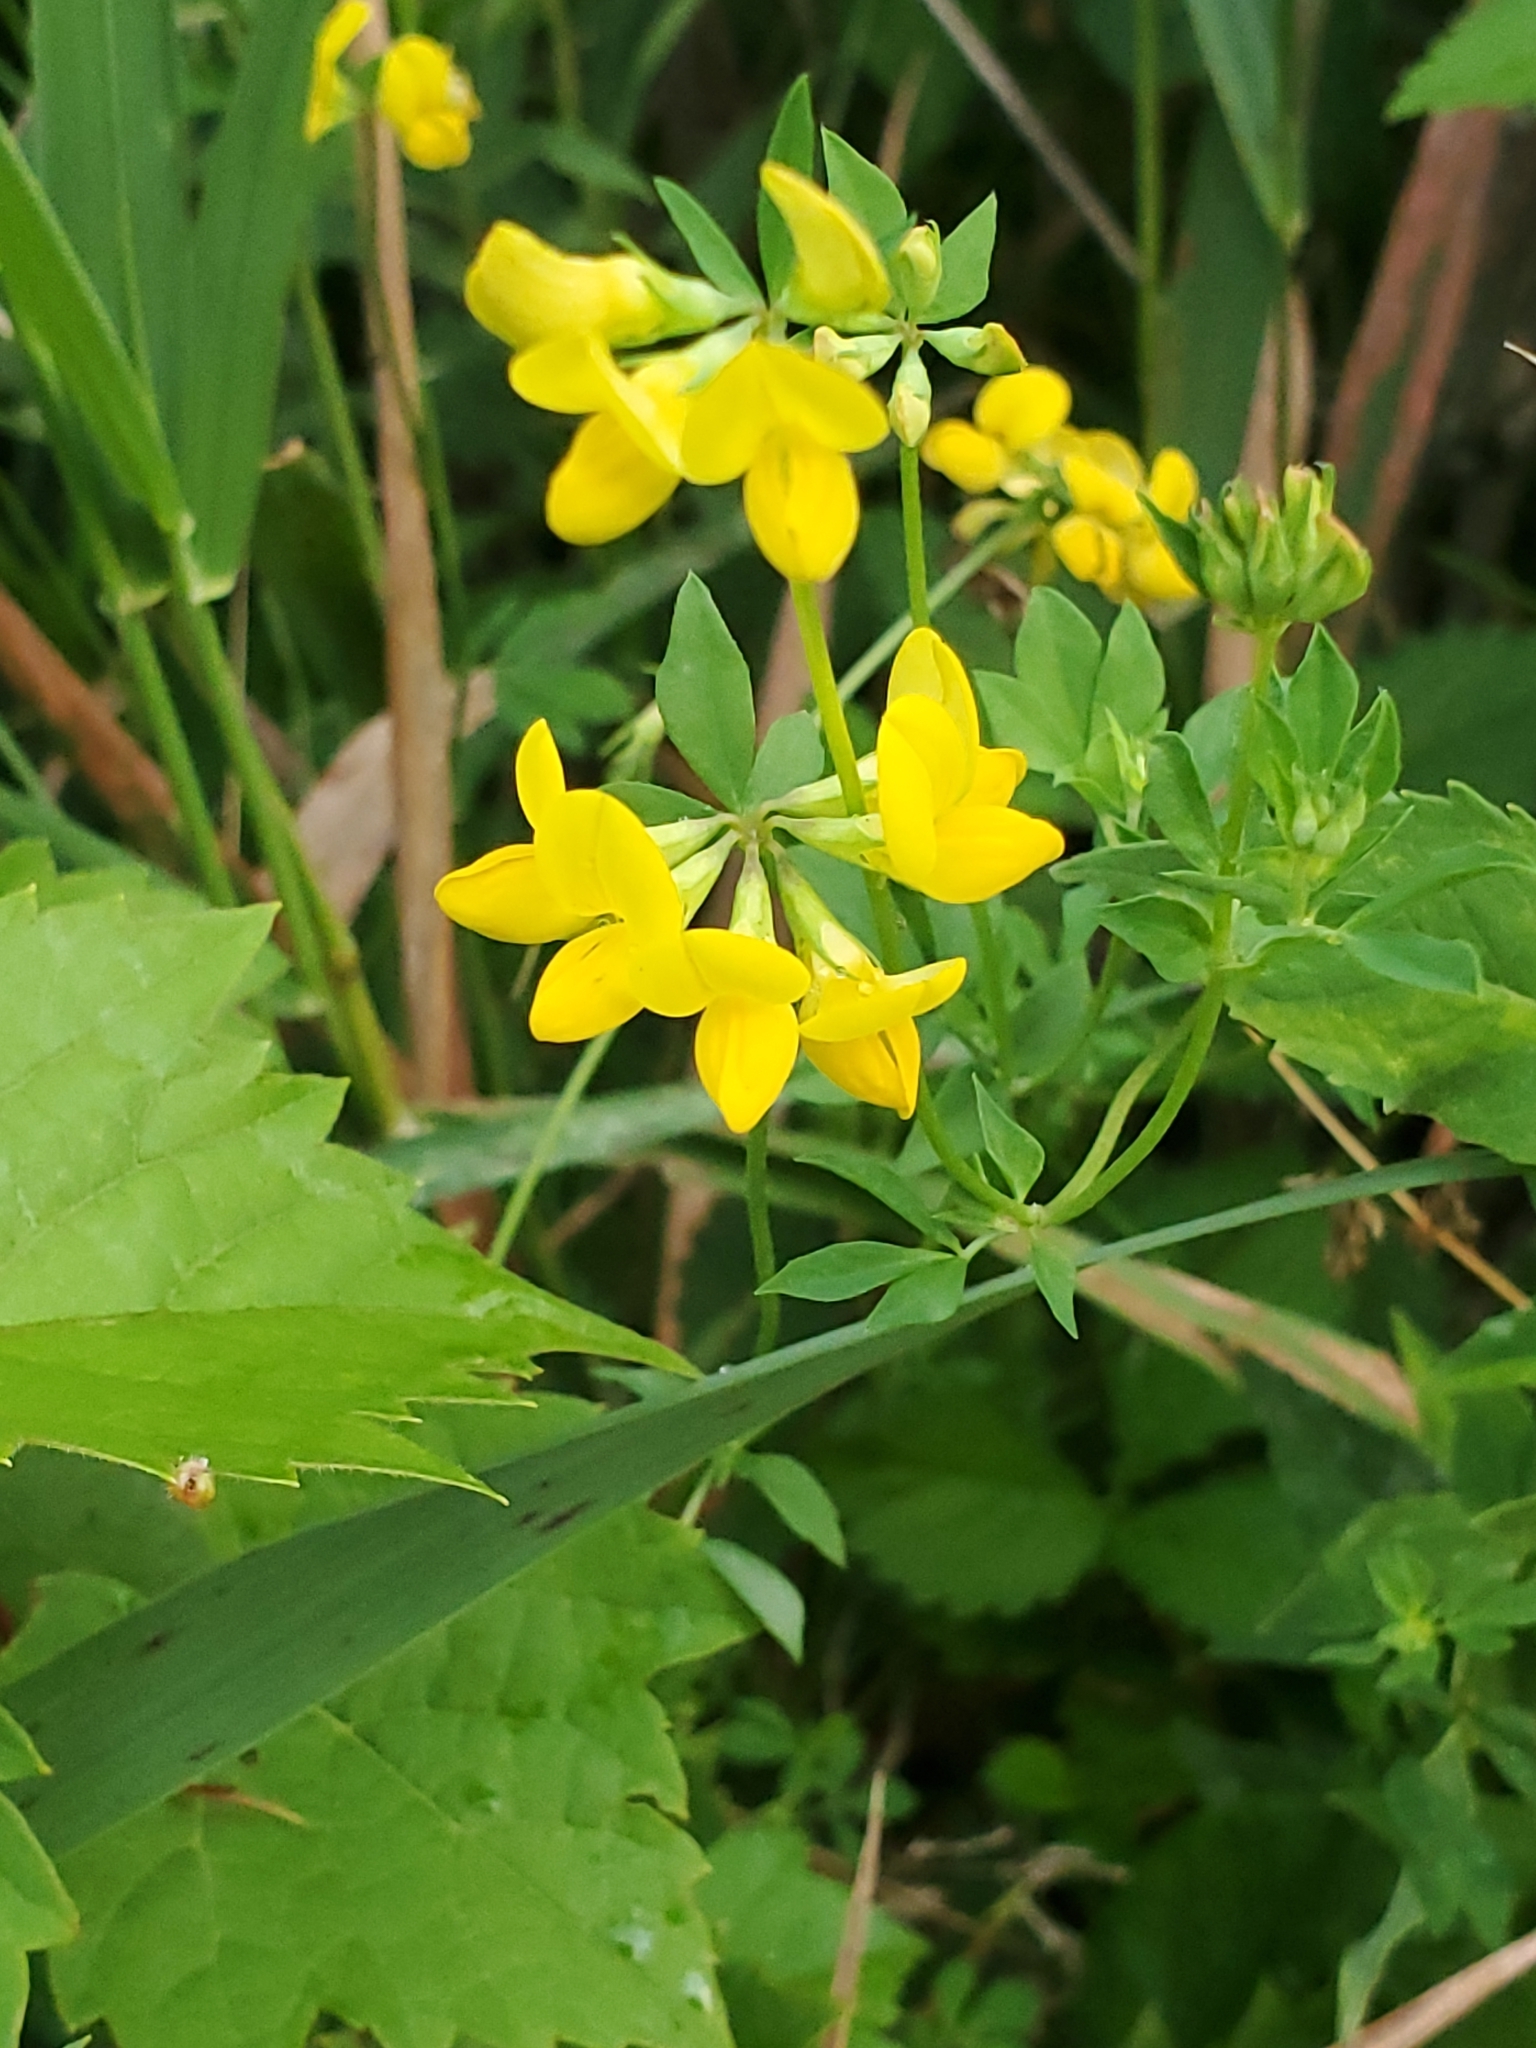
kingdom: Plantae
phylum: Tracheophyta
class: Magnoliopsida
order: Fabales
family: Fabaceae
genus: Lotus
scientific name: Lotus corniculatus
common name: Common bird's-foot-trefoil
